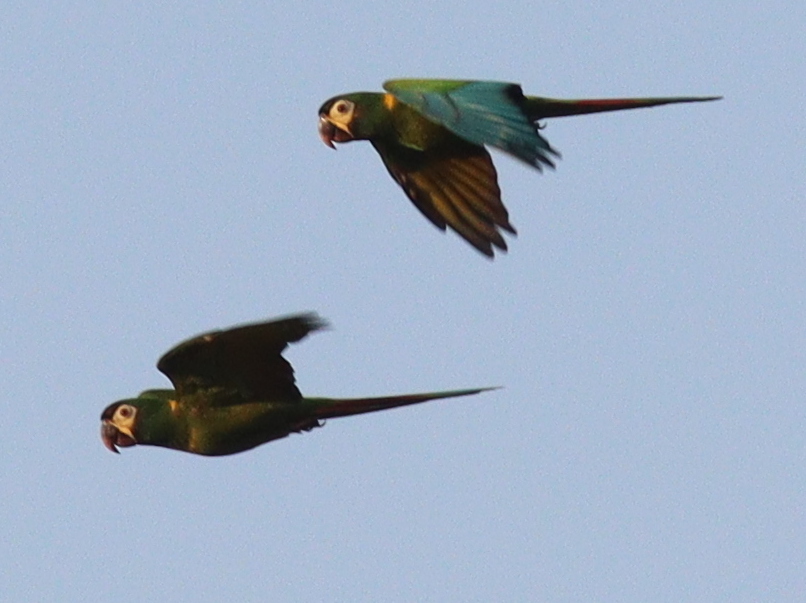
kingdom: Animalia
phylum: Chordata
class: Aves
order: Psittaciformes
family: Psittacidae
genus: Primolius
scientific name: Primolius auricollis
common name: Golden-collared macaw
